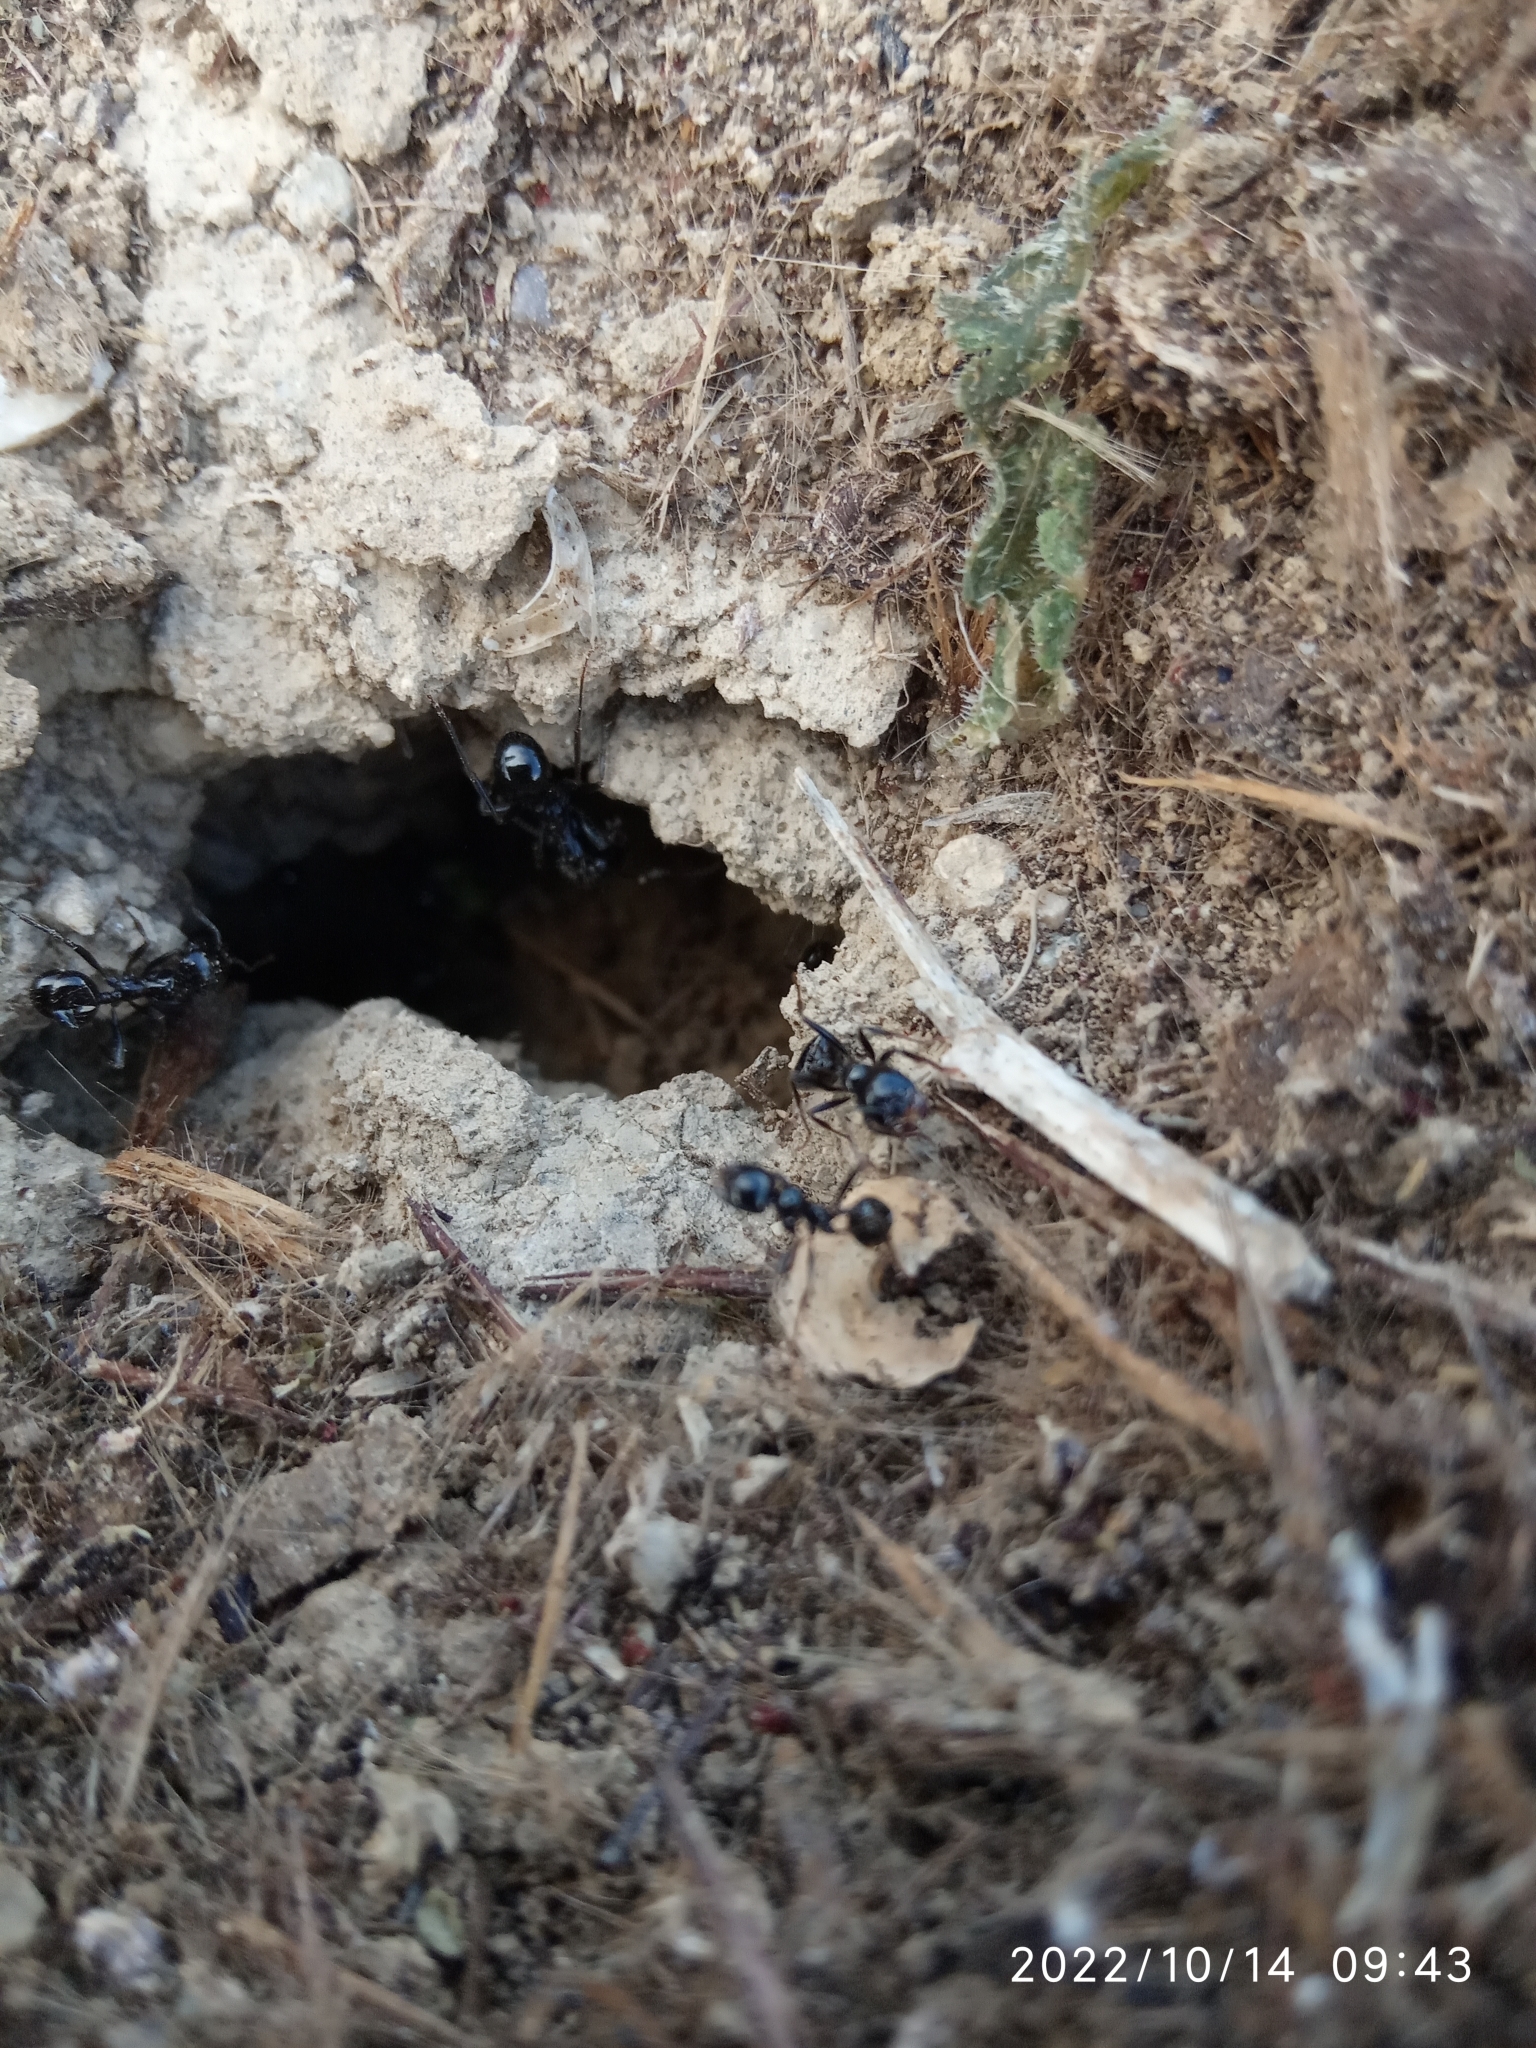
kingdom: Animalia
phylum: Arthropoda
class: Insecta
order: Hymenoptera
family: Formicidae
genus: Messor
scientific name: Messor barbarus
